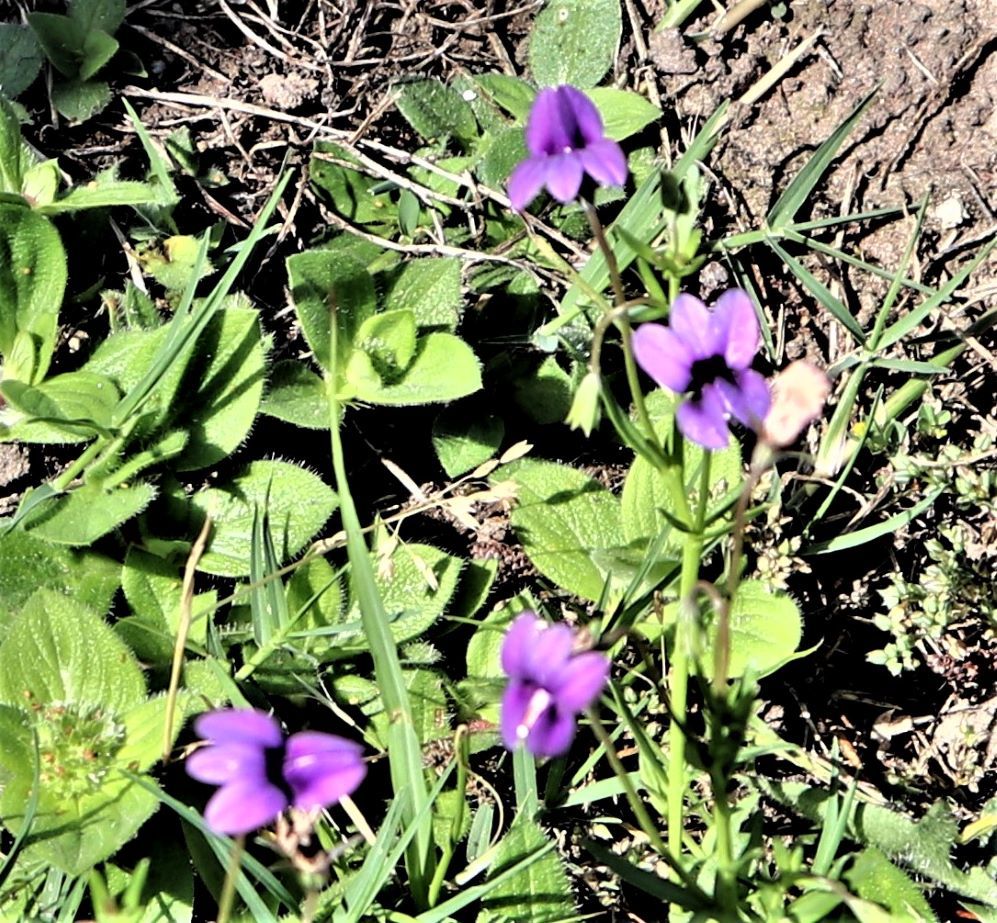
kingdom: Plantae
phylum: Tracheophyta
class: Magnoliopsida
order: Asterales
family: Campanulaceae
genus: Monopsis
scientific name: Monopsis unidentata
